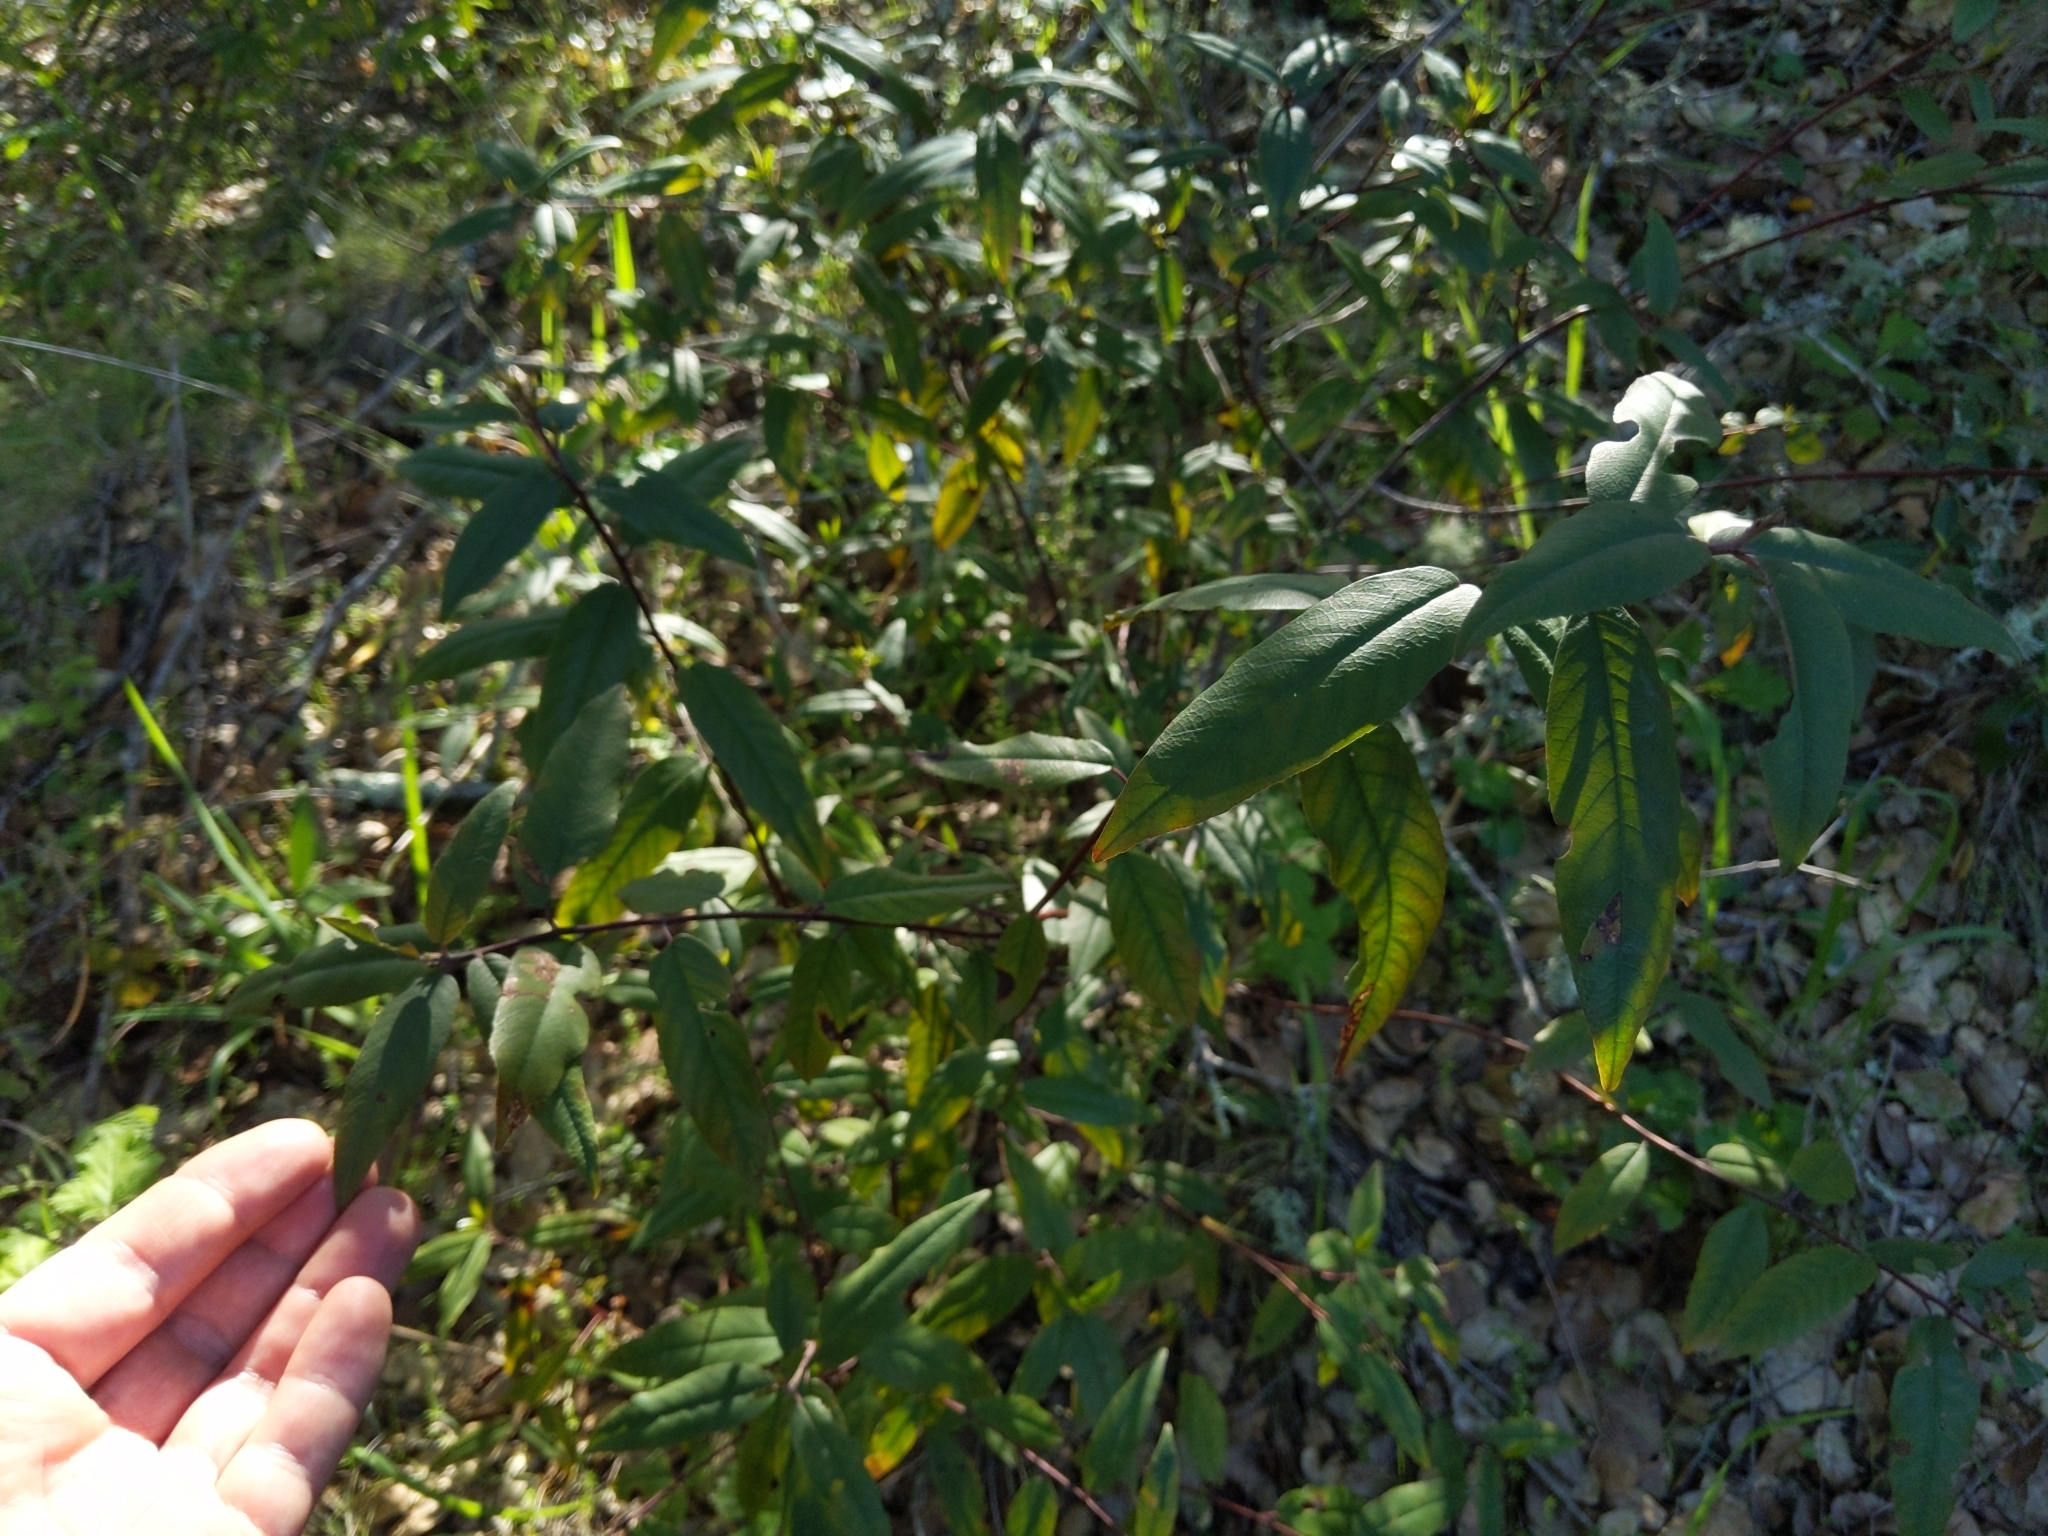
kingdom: Plantae
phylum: Tracheophyta
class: Magnoliopsida
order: Rosales
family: Rhamnaceae
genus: Frangula
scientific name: Frangula californica
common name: California buckthorn
